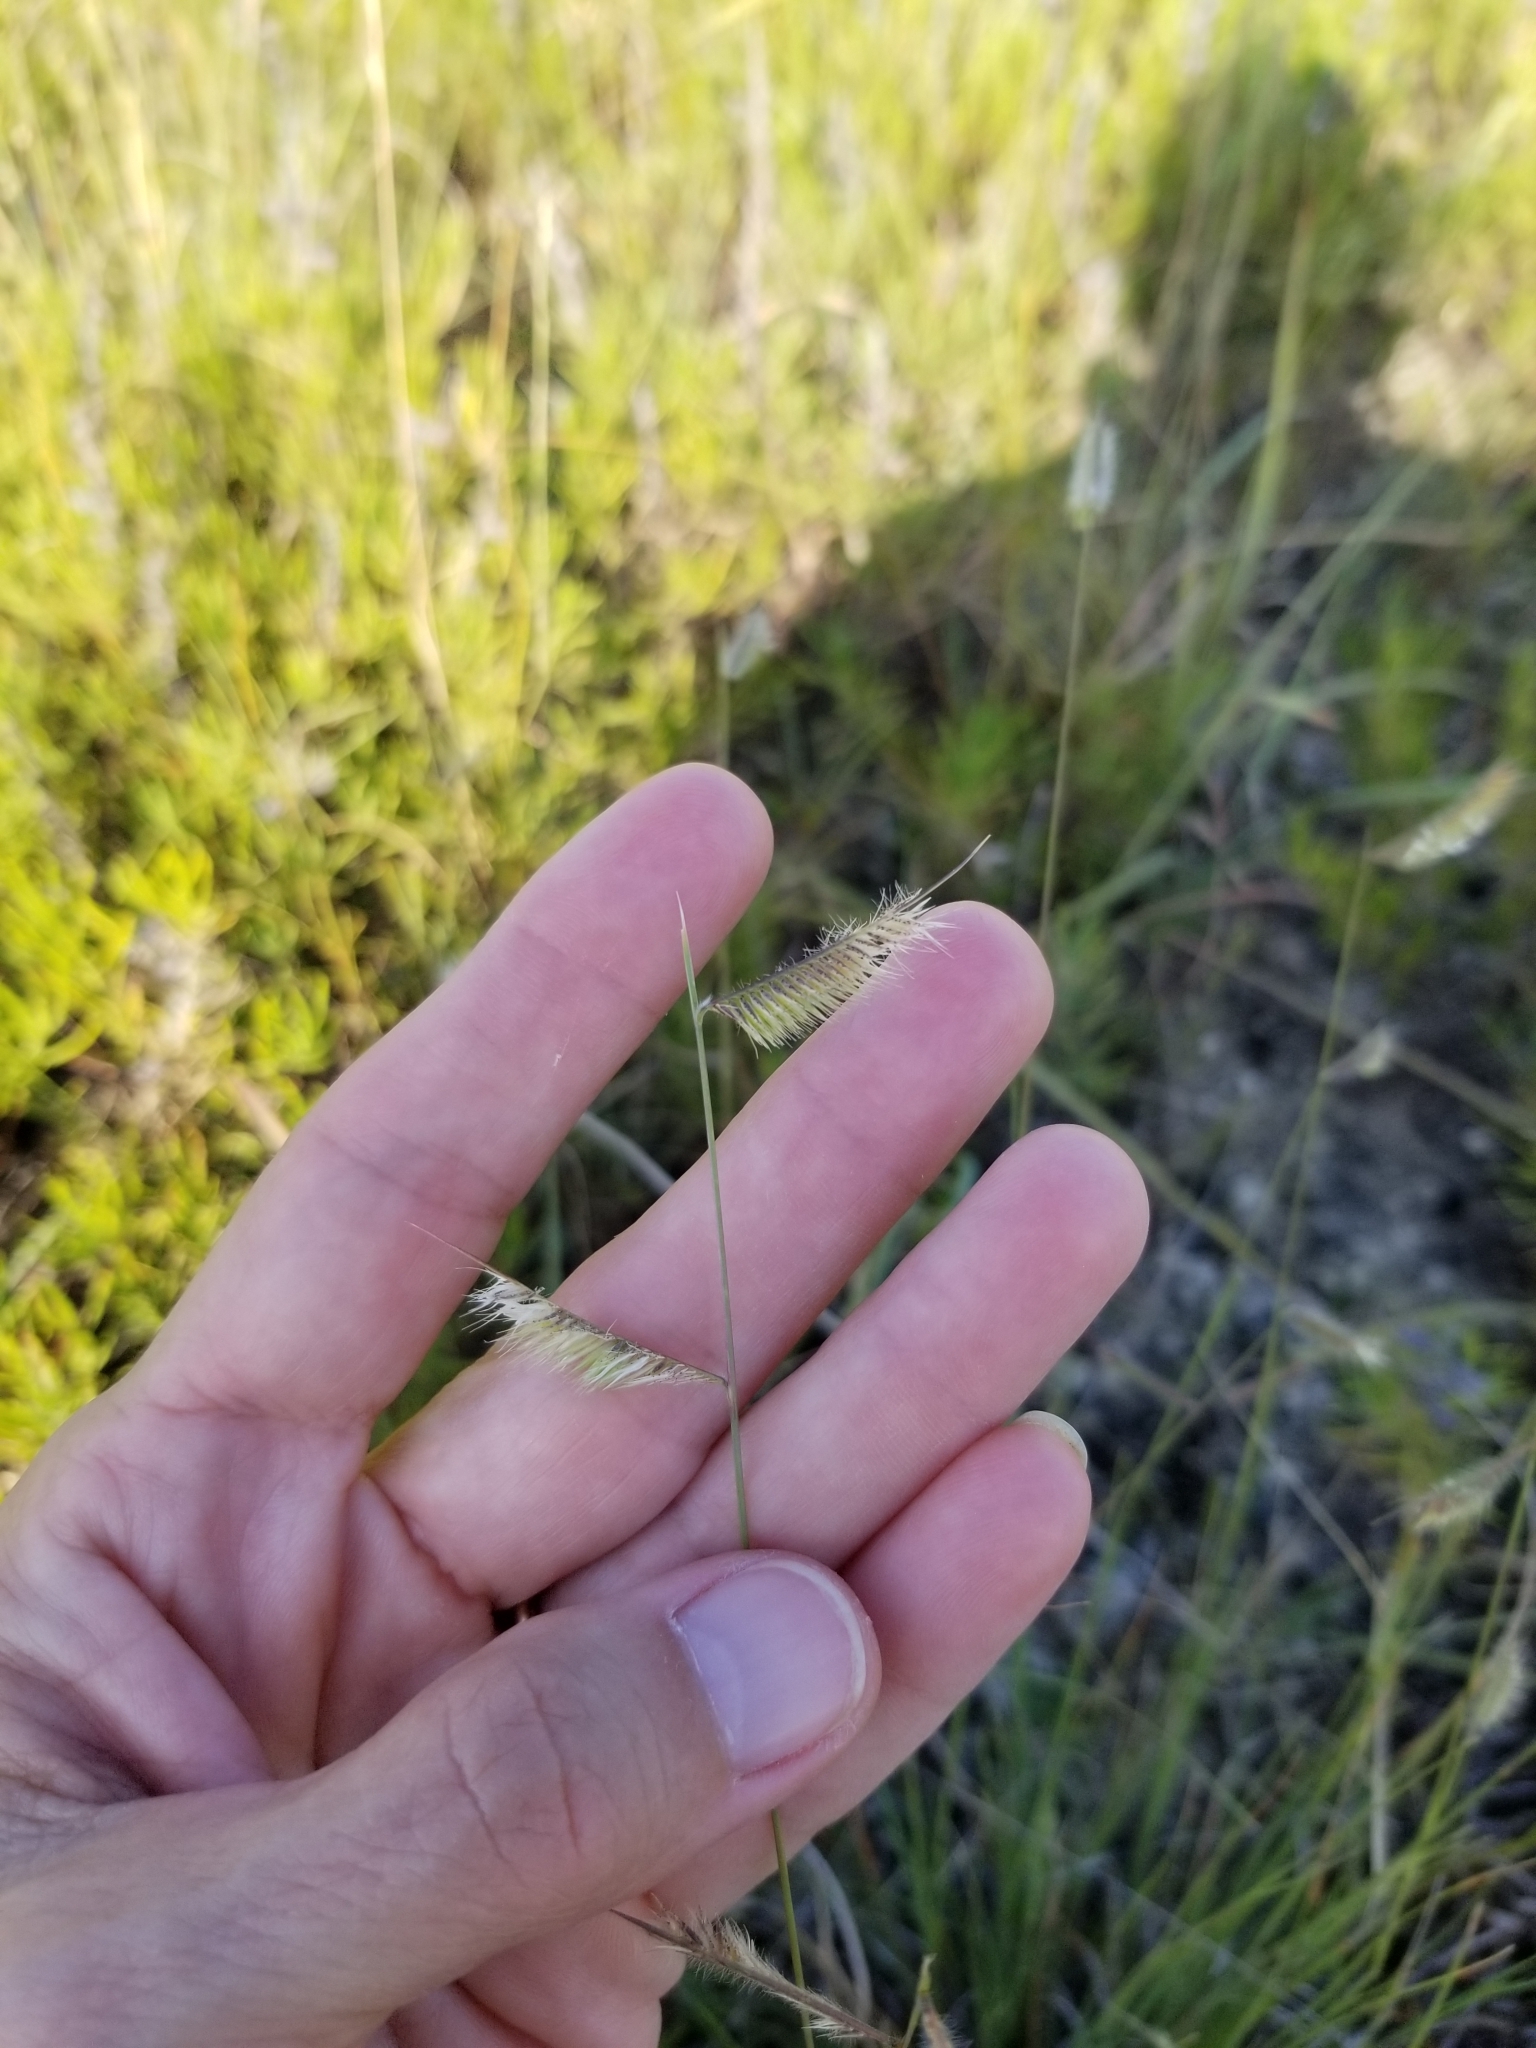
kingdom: Plantae
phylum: Tracheophyta
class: Liliopsida
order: Poales
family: Poaceae
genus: Bouteloua
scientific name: Bouteloua hirsuta
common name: Hairy grama
